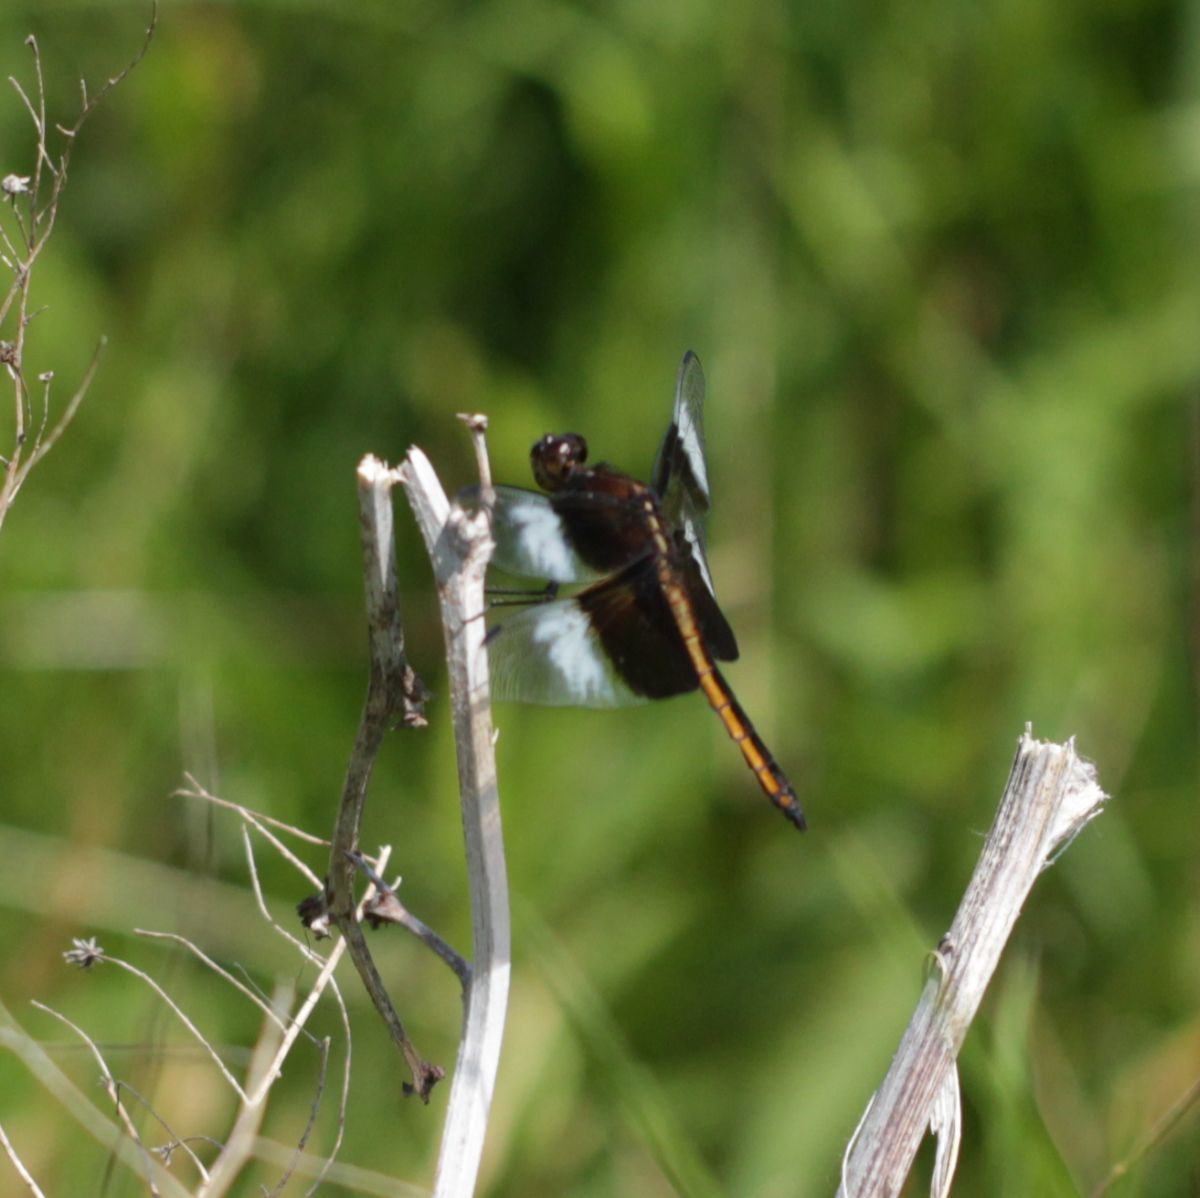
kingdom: Animalia
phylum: Arthropoda
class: Insecta
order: Odonata
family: Libellulidae
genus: Libellula
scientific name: Libellula luctuosa
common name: Widow skimmer
